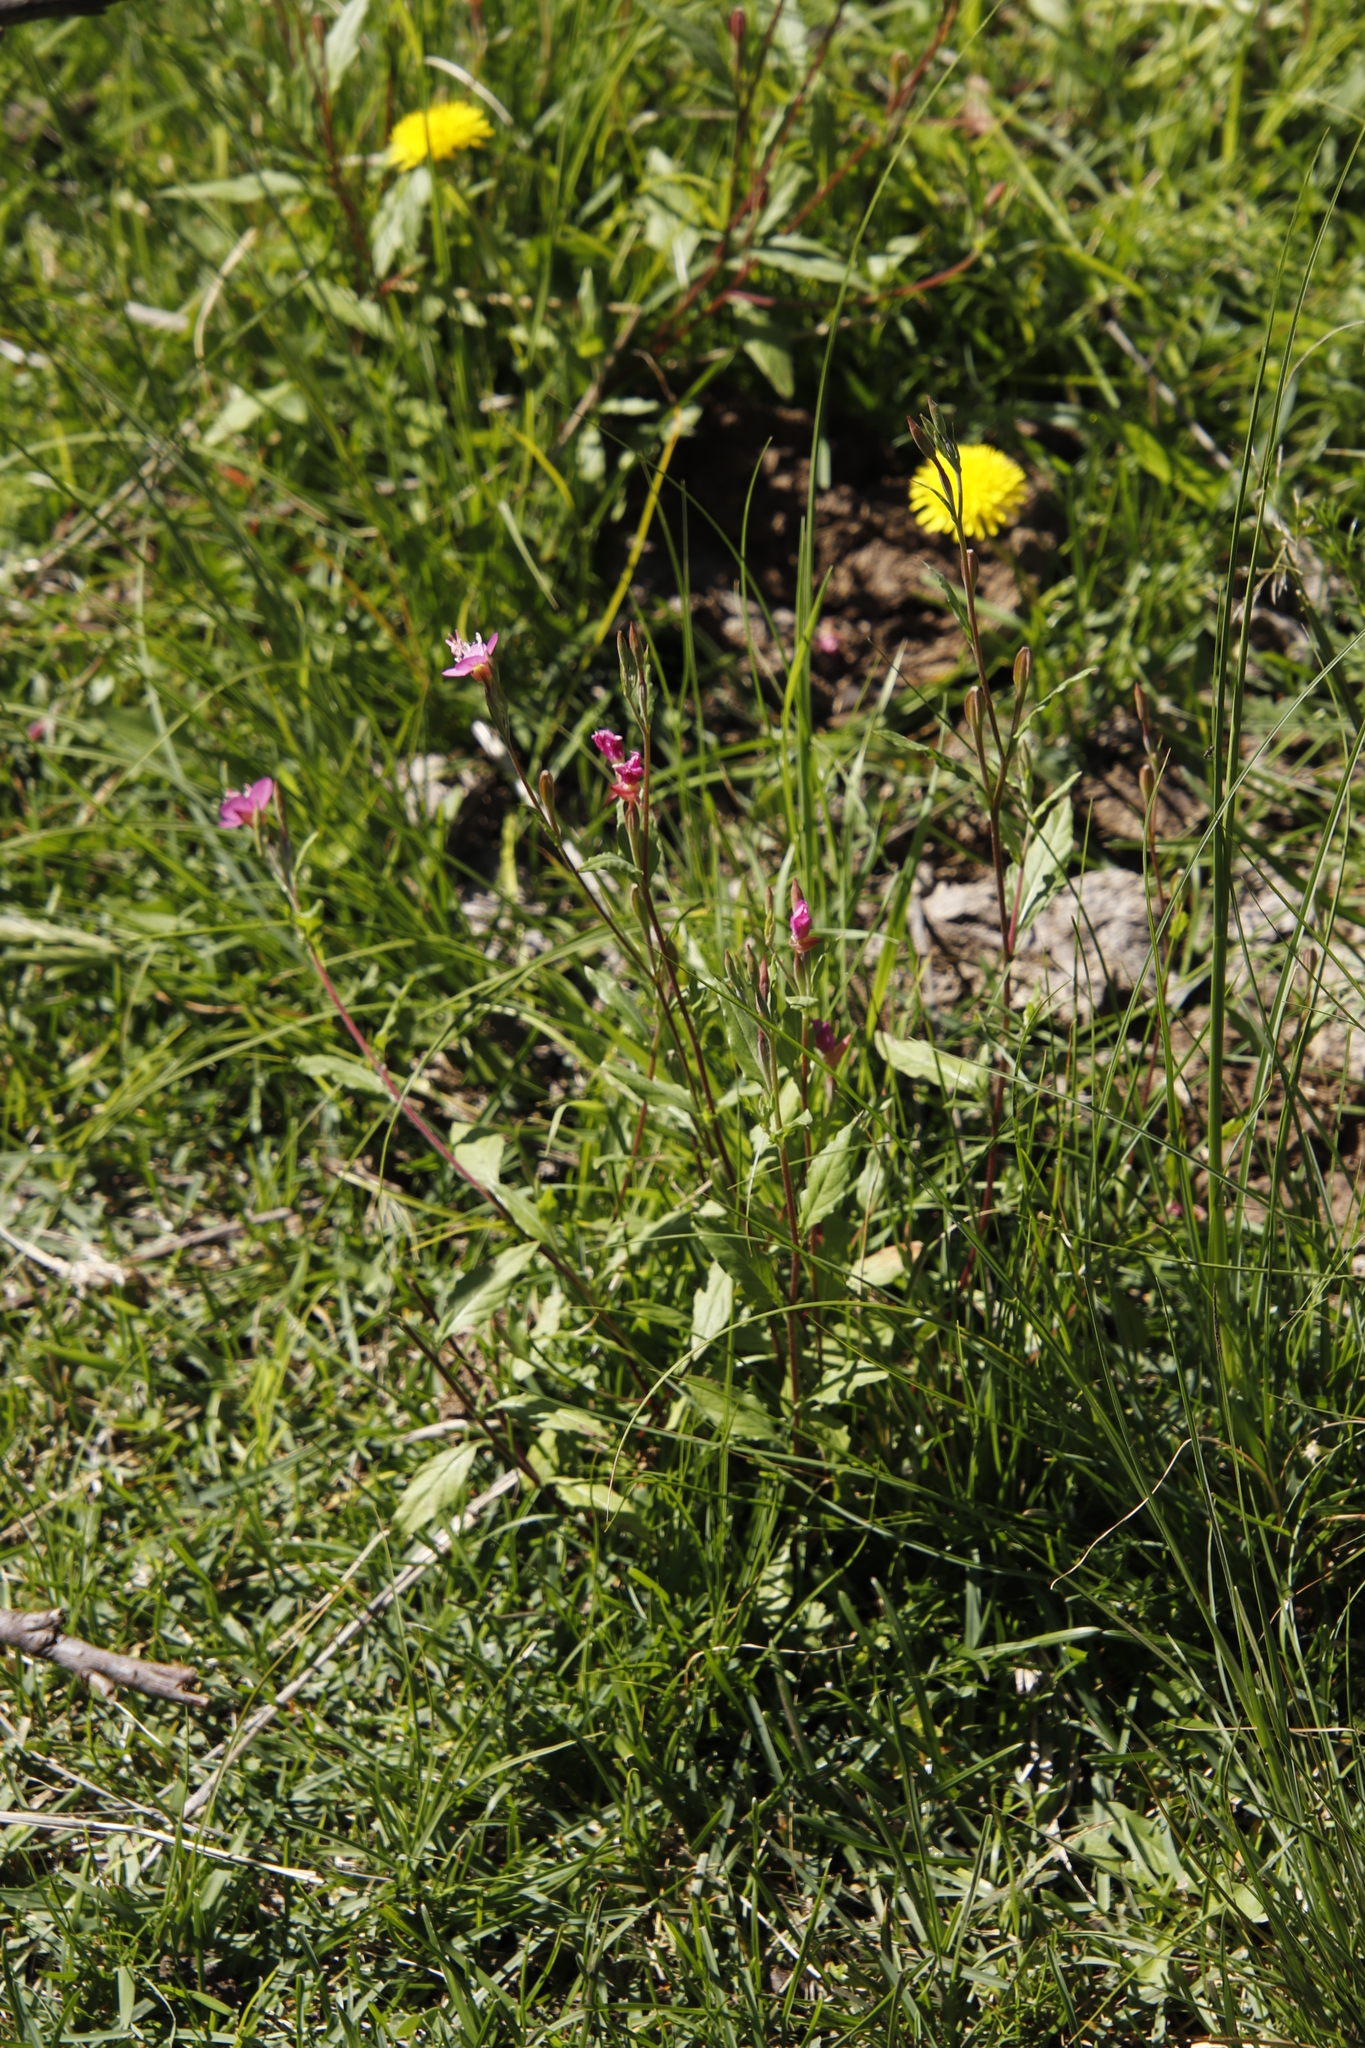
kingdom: Plantae
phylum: Tracheophyta
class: Magnoliopsida
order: Myrtales
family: Onagraceae
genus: Oenothera
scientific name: Oenothera rosea
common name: Rosy evening-primrose
